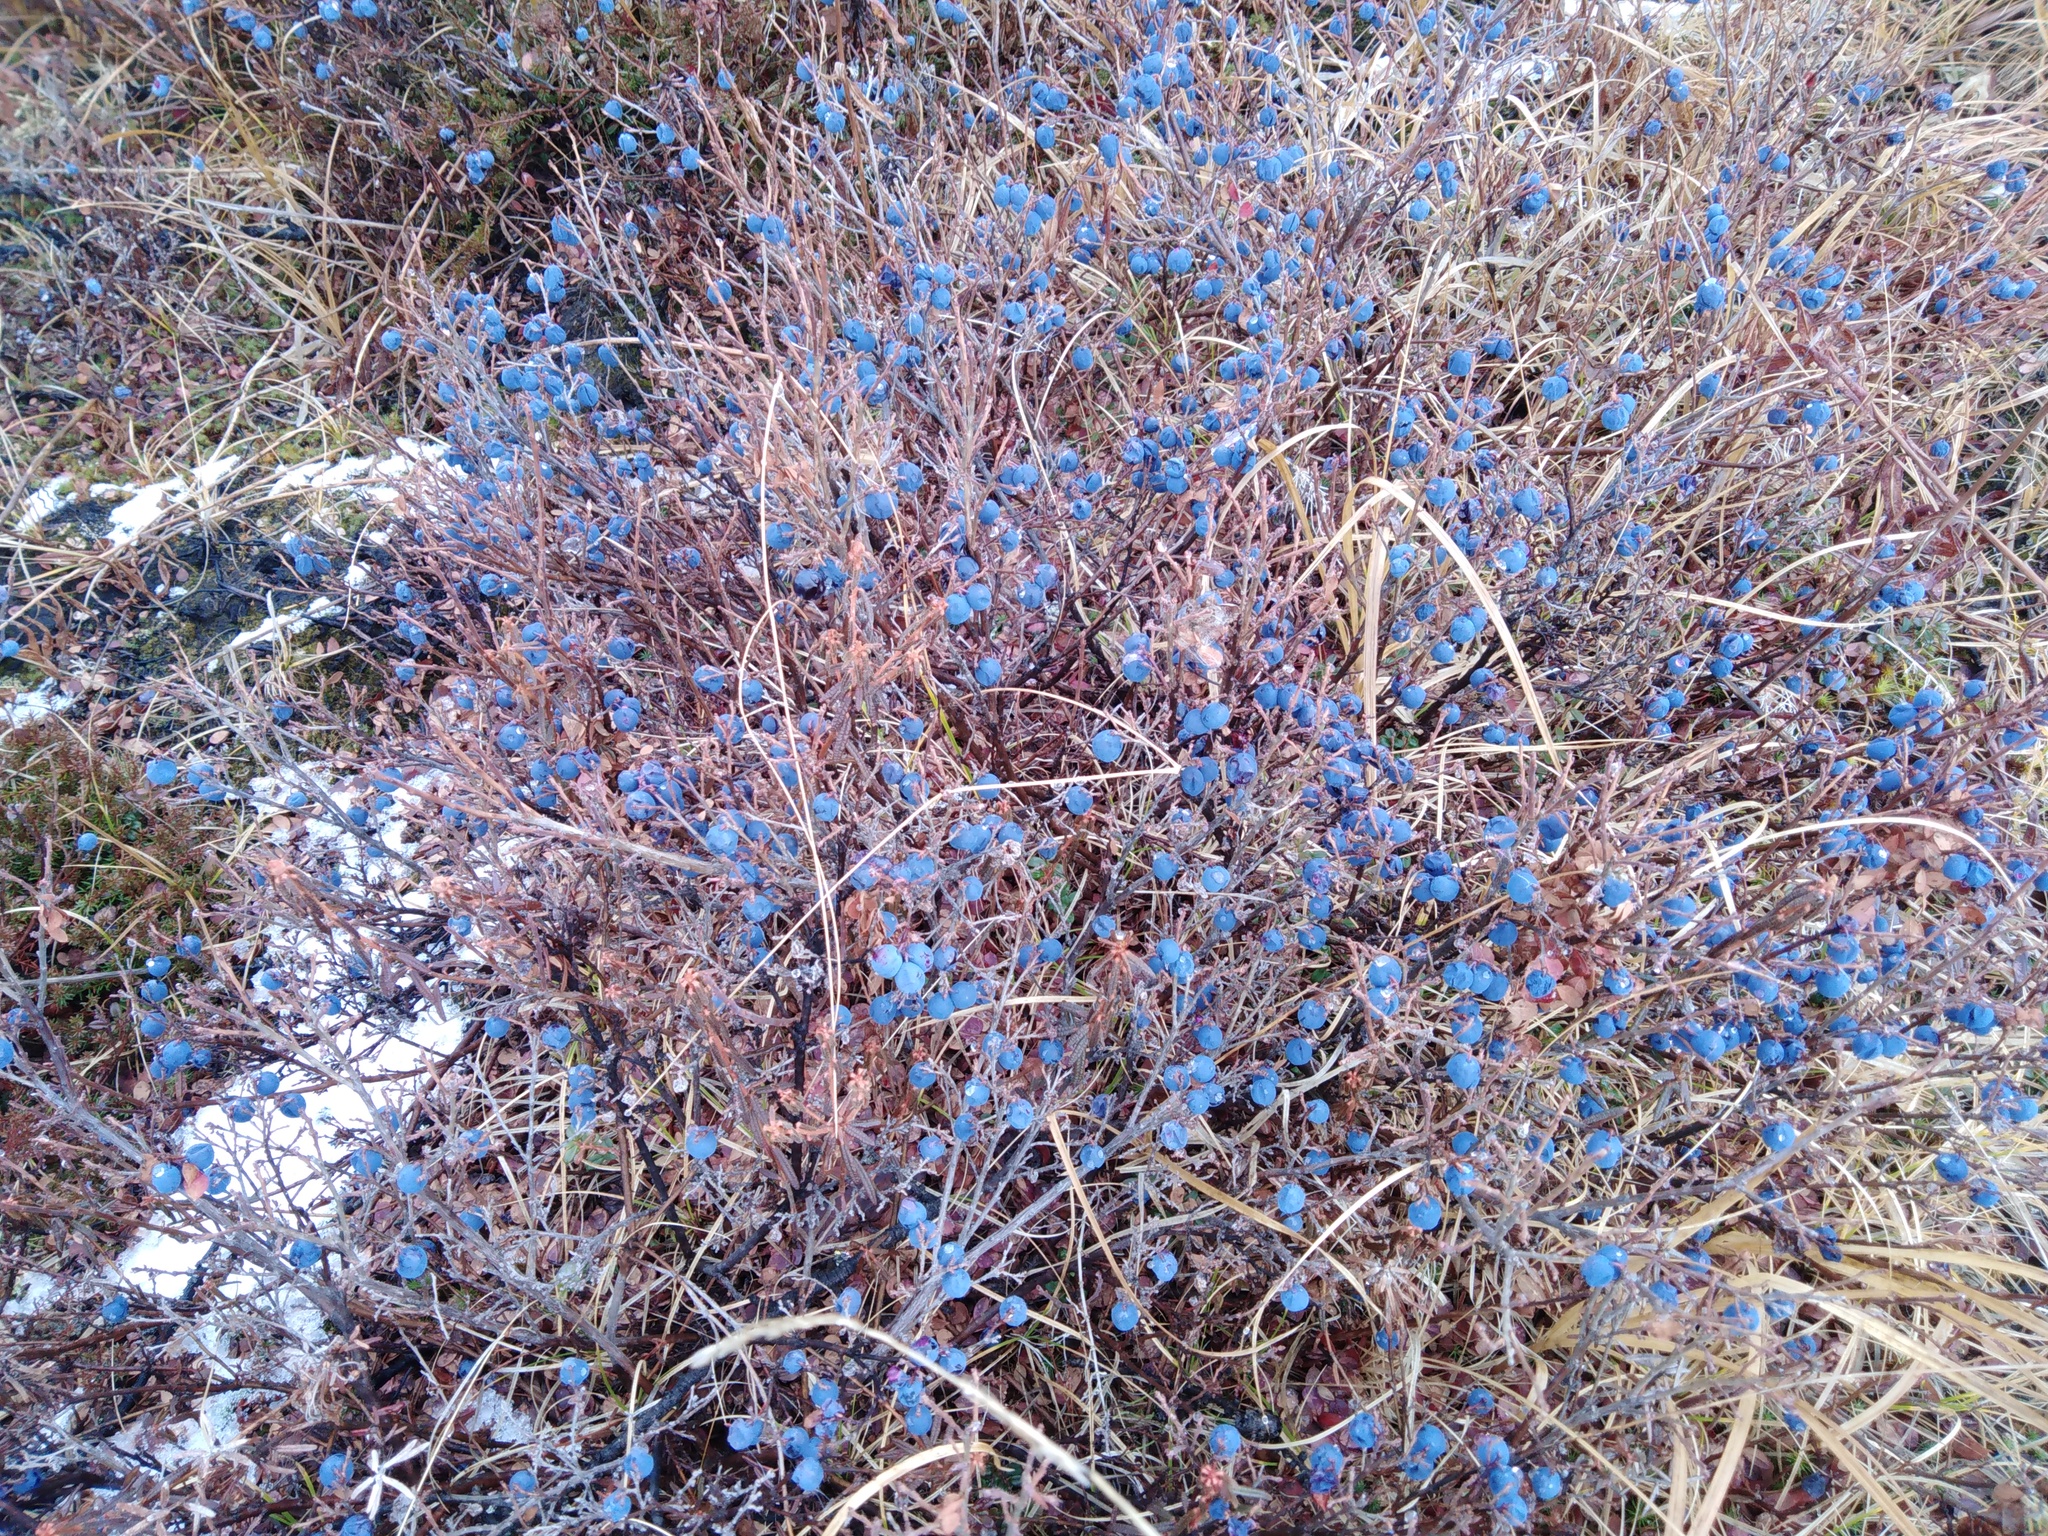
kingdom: Plantae
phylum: Tracheophyta
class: Magnoliopsida
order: Ericales
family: Ericaceae
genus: Vaccinium
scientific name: Vaccinium uliginosum
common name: Bog bilberry
